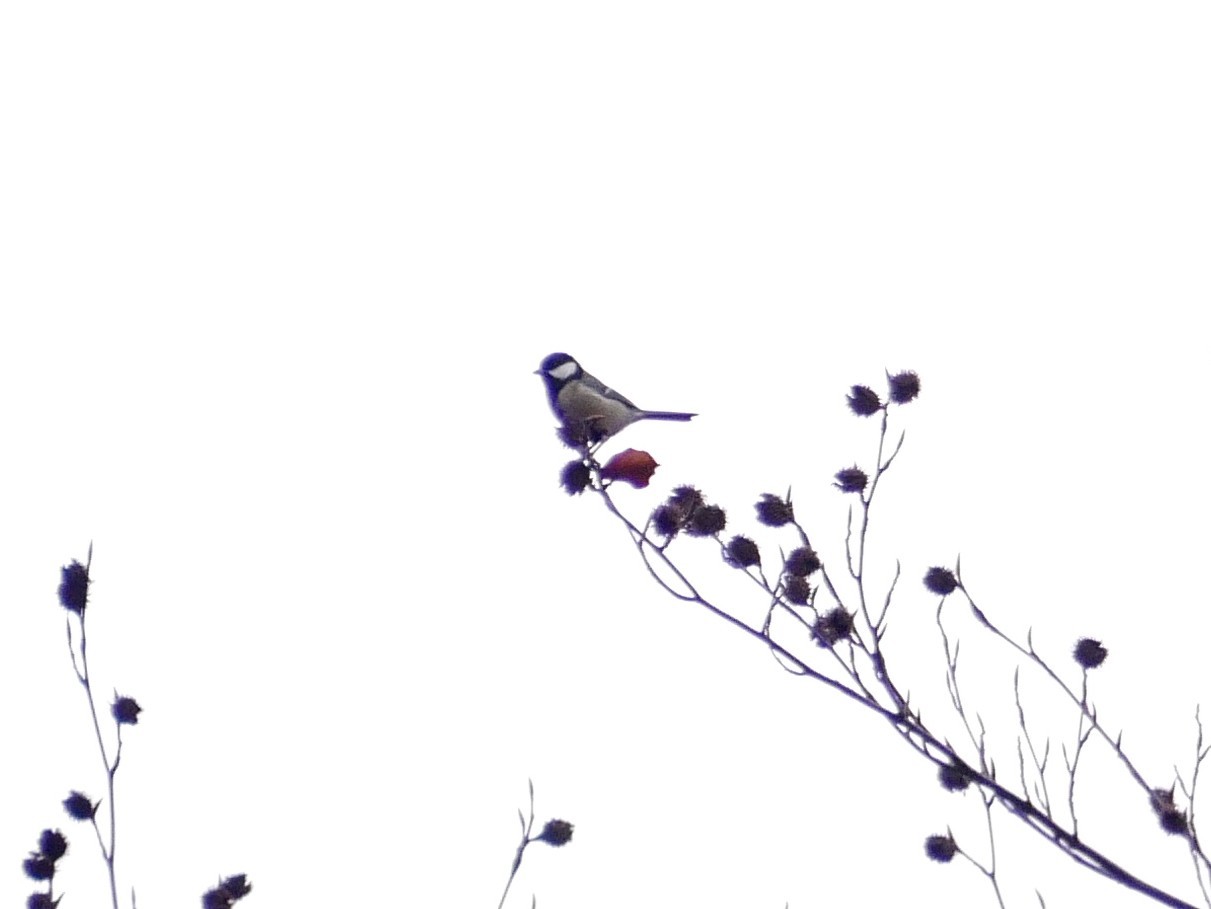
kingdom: Animalia
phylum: Chordata
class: Aves
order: Passeriformes
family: Paridae
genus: Parus
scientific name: Parus major
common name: Great tit
